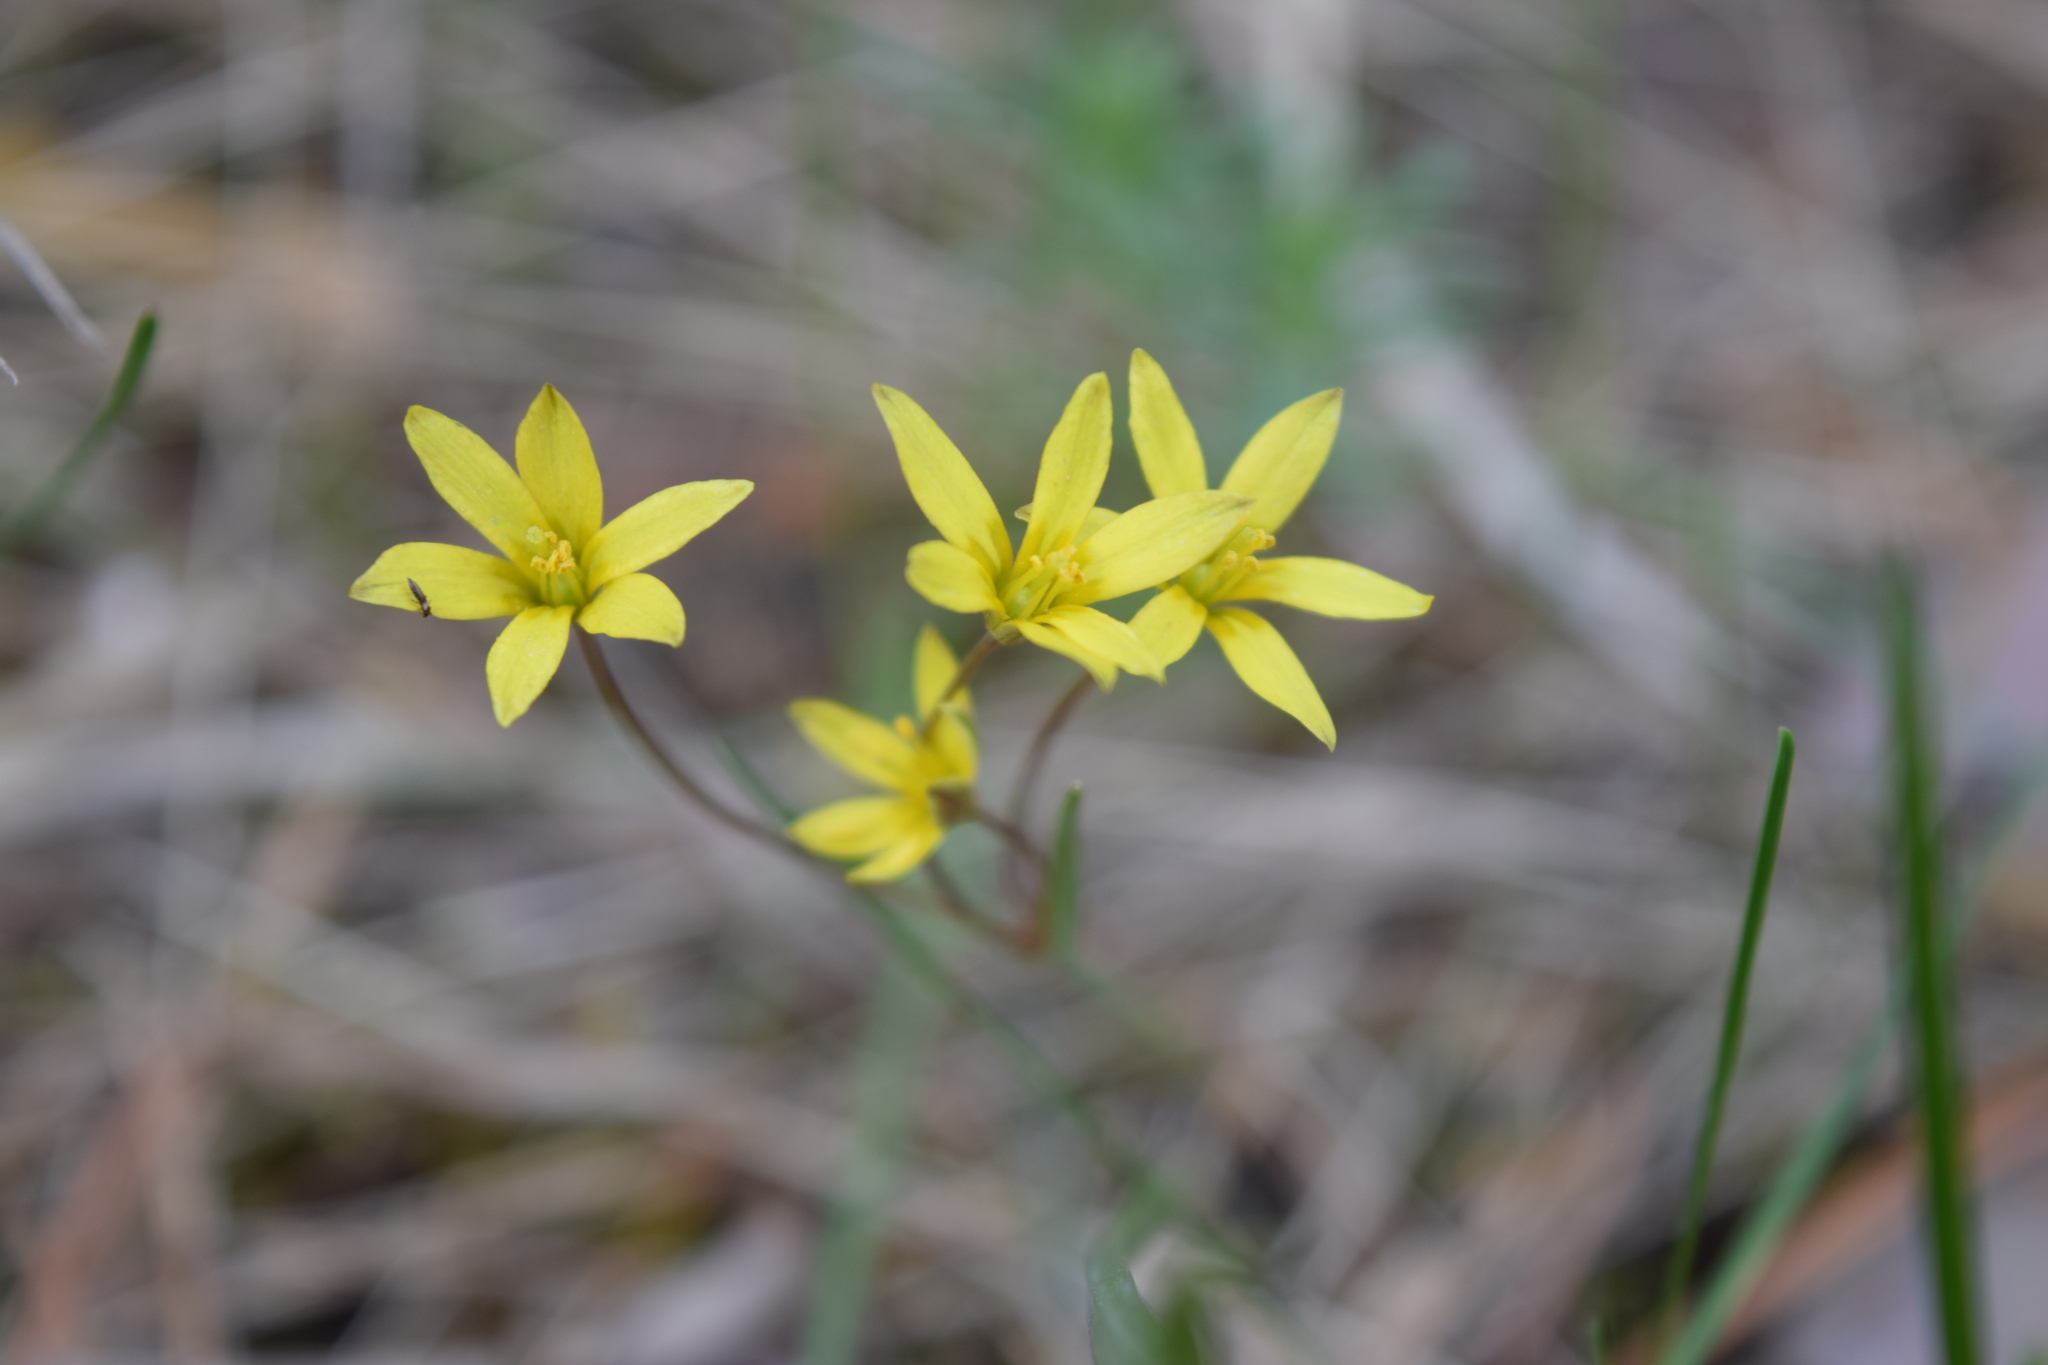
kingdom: Plantae
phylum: Tracheophyta
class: Liliopsida
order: Liliales
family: Liliaceae
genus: Gagea
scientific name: Gagea fragifera
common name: Lily
